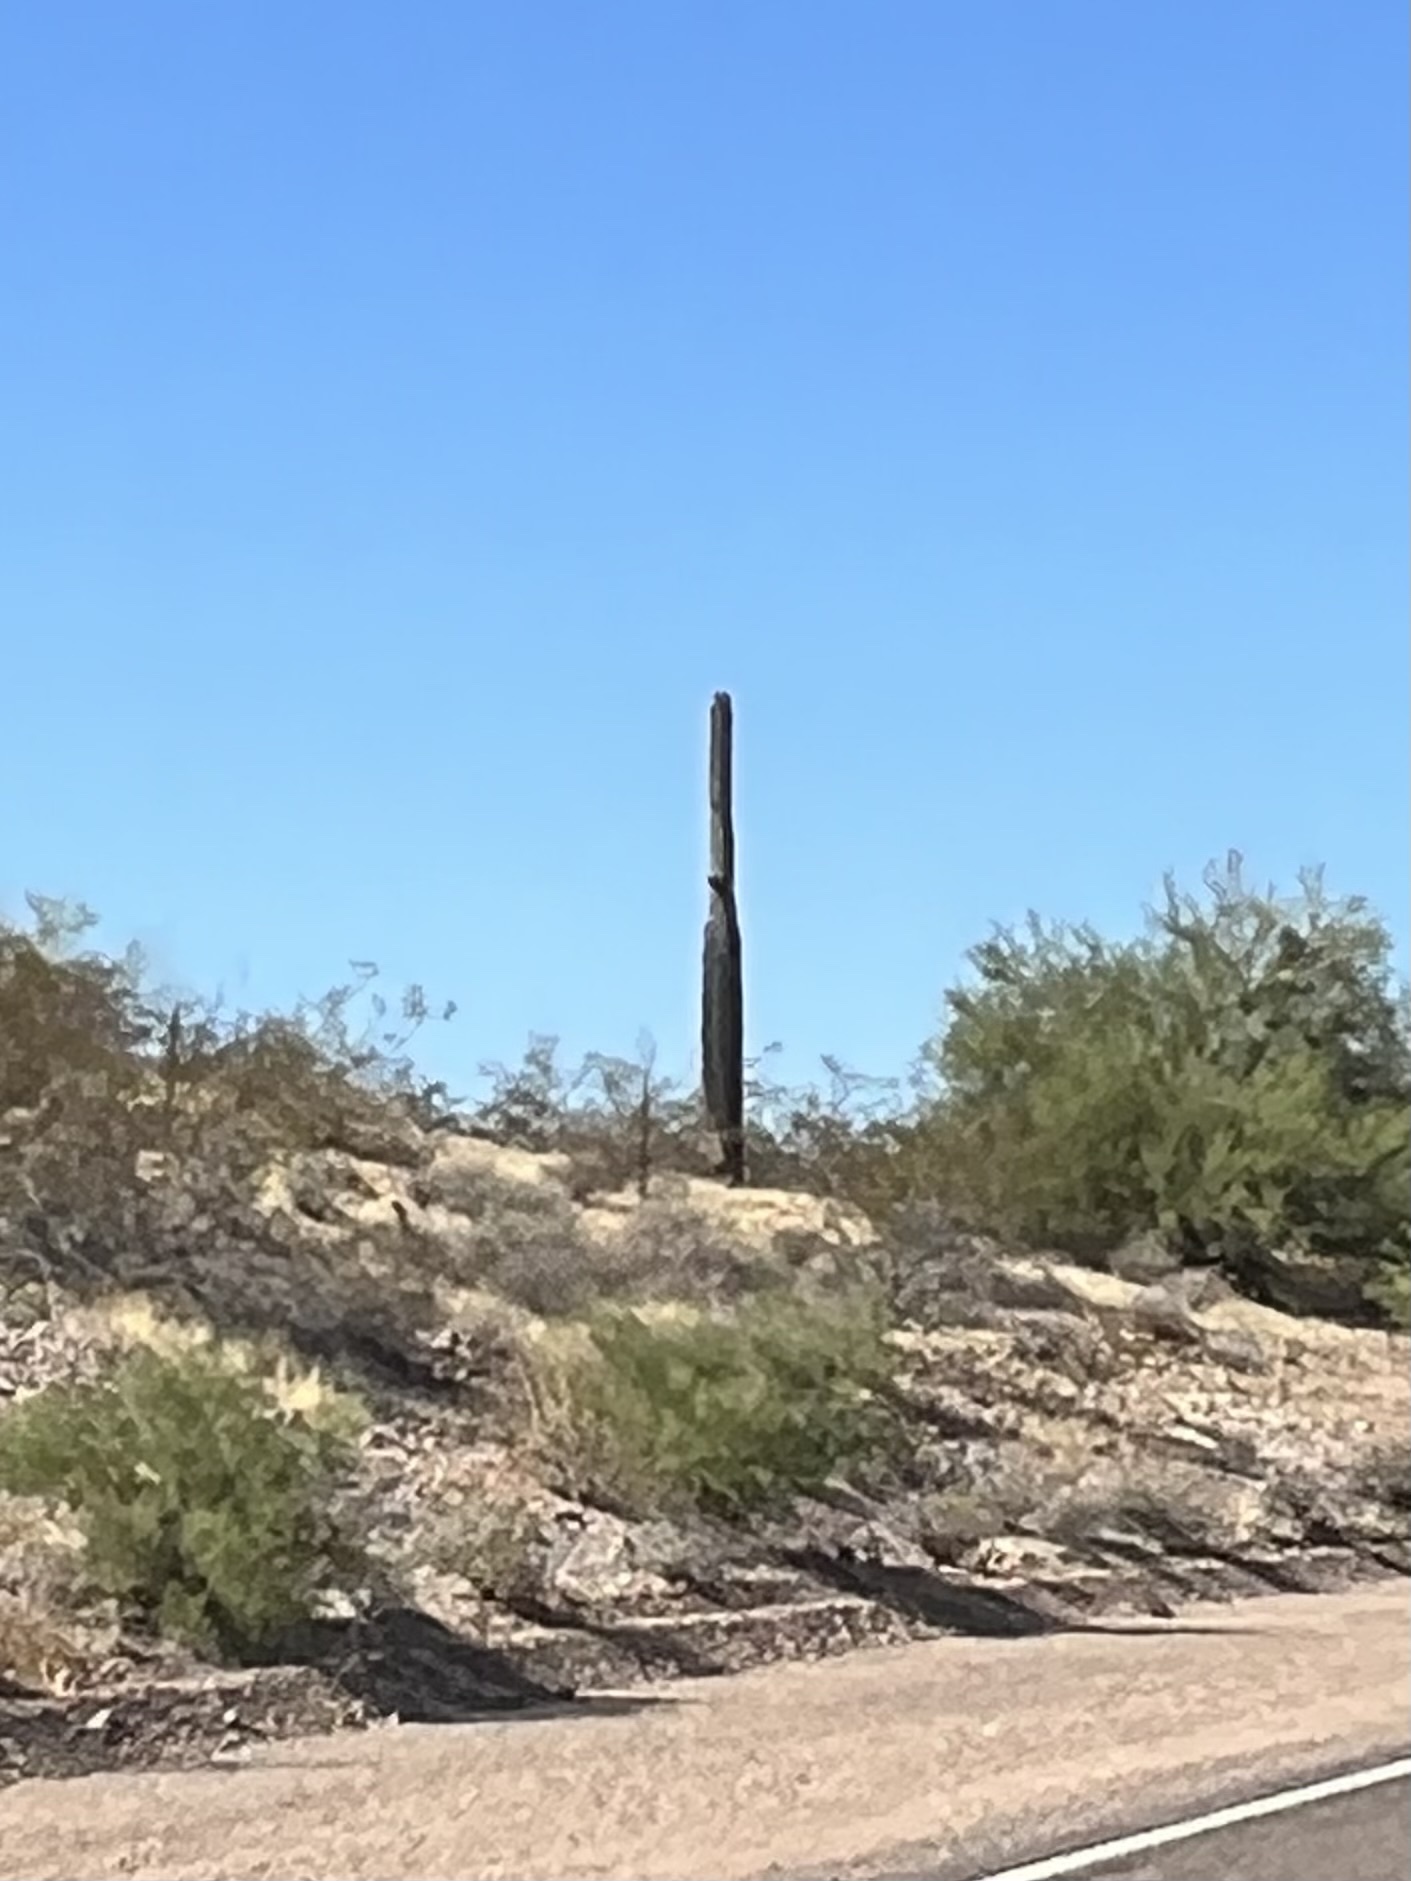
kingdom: Plantae
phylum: Tracheophyta
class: Magnoliopsida
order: Caryophyllales
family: Cactaceae
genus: Carnegiea
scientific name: Carnegiea gigantea
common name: Saguaro
